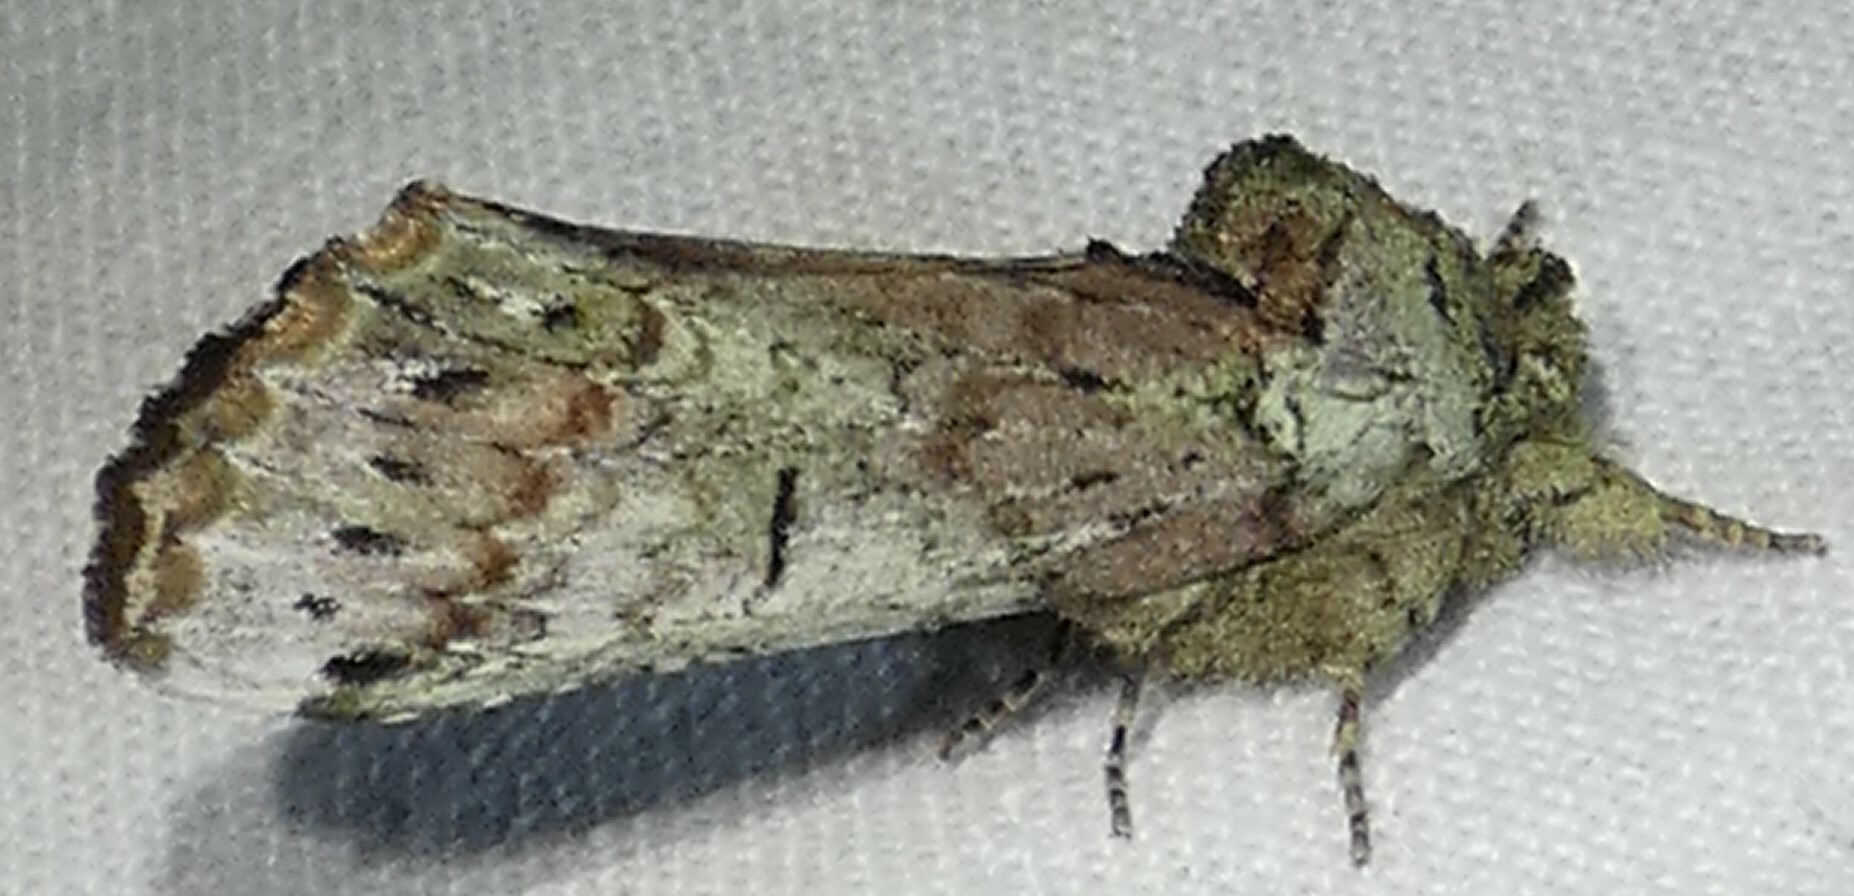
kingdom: Animalia
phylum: Arthropoda
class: Insecta
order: Lepidoptera
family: Notodontidae
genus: Schizura
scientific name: Schizura
